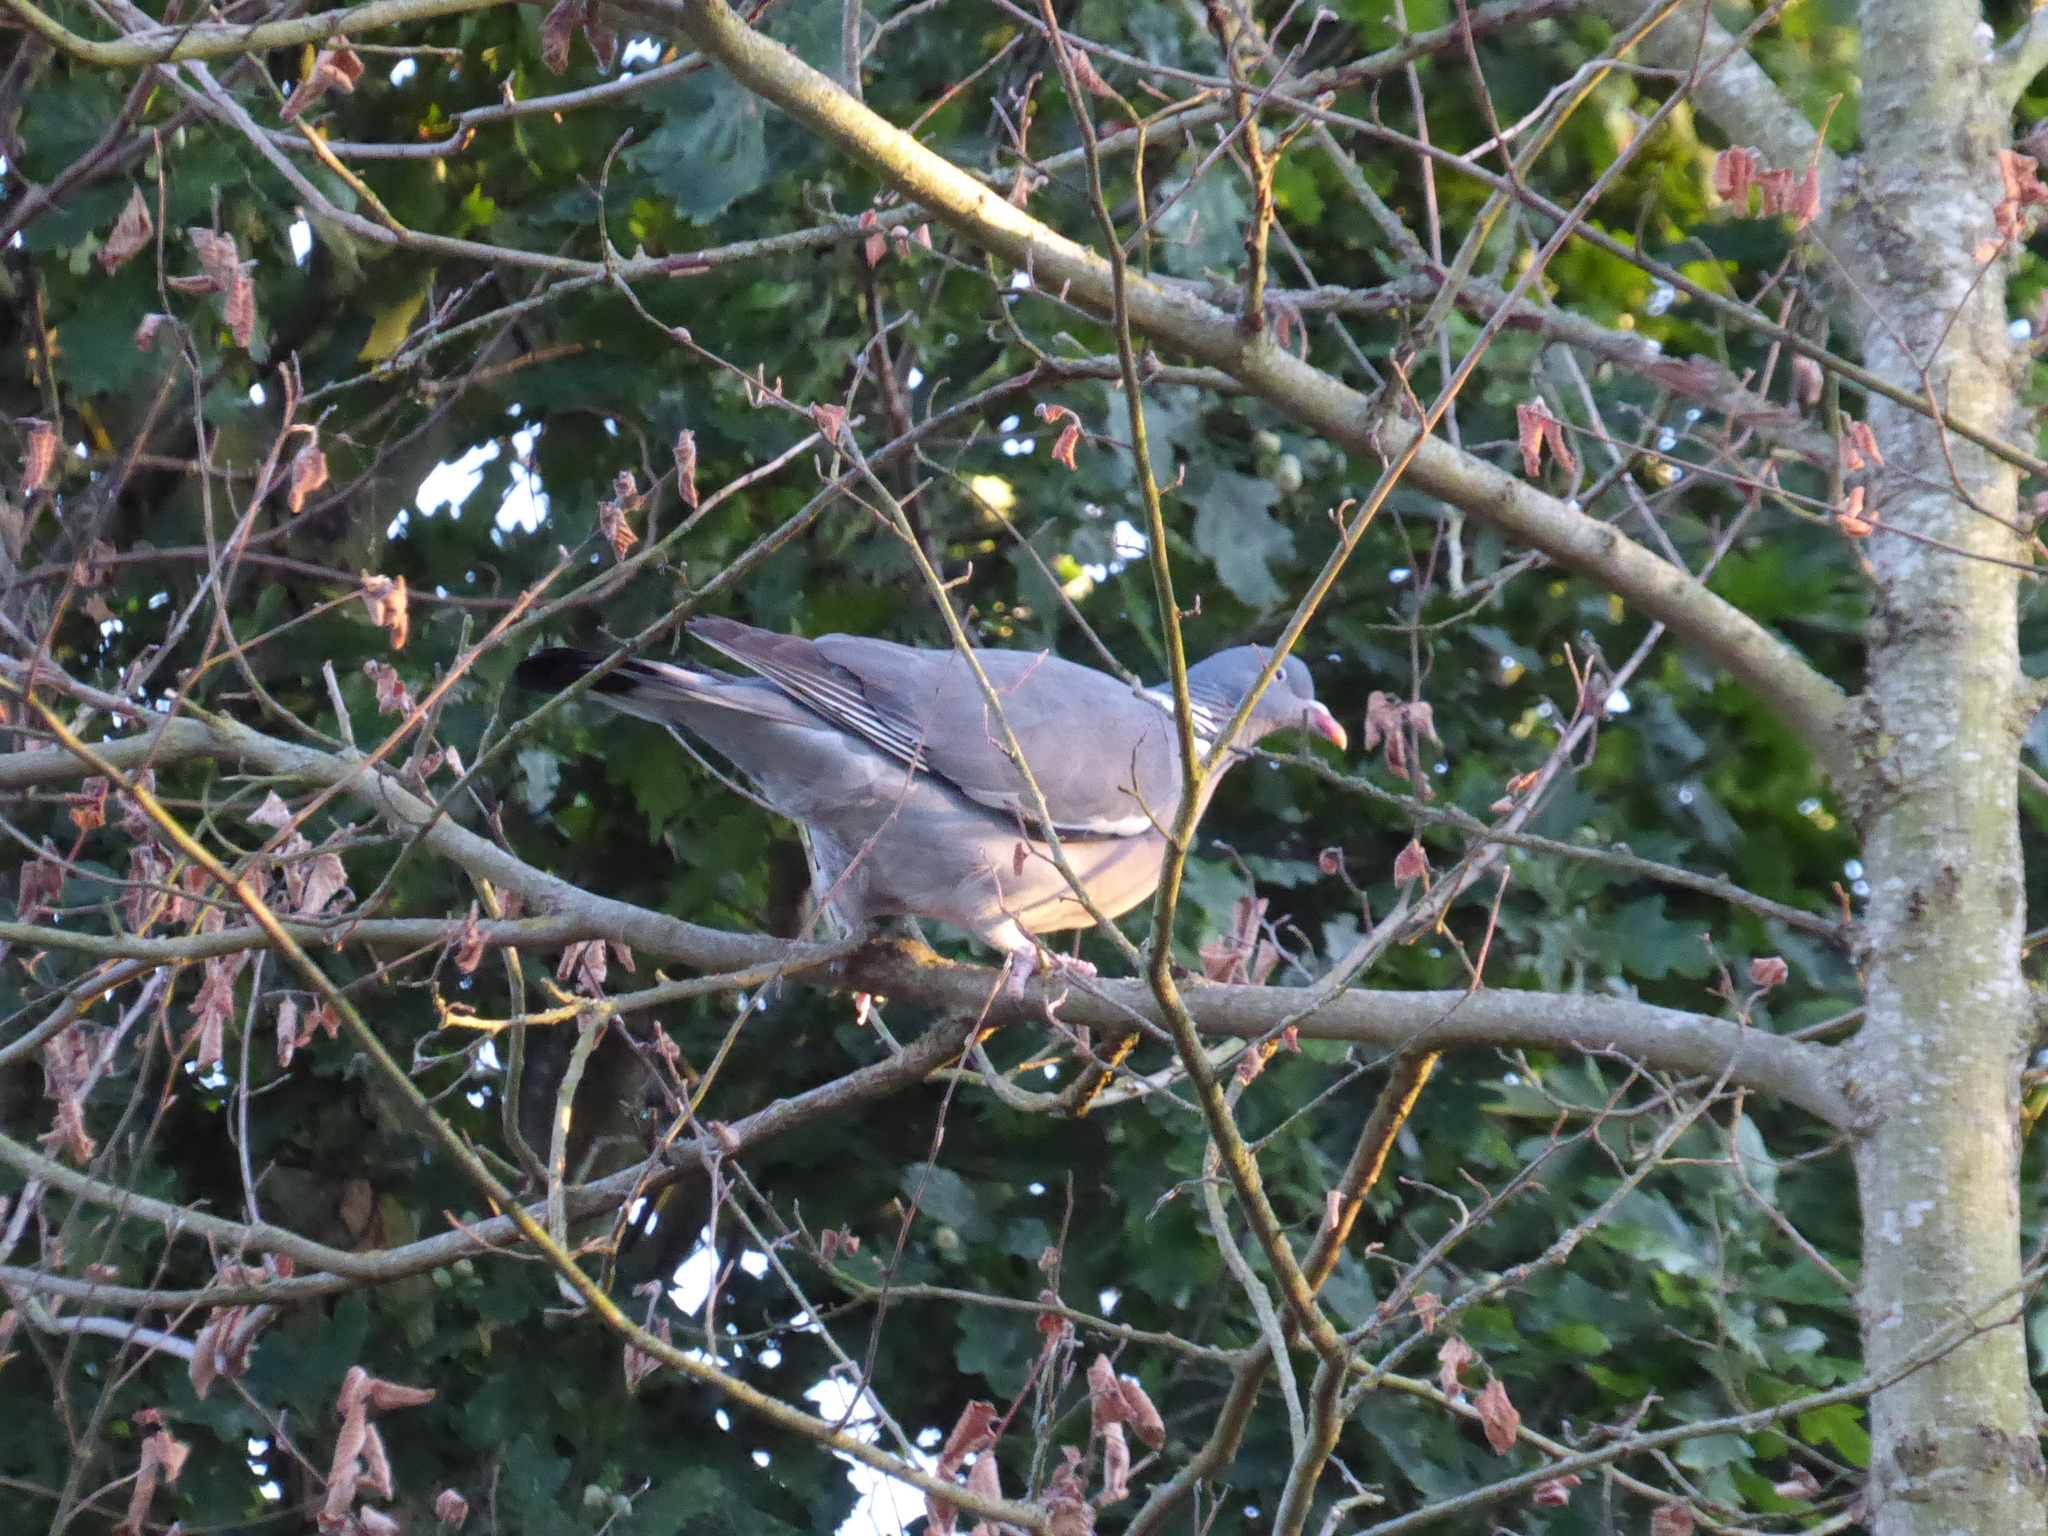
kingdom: Animalia
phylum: Chordata
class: Aves
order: Columbiformes
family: Columbidae
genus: Columba
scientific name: Columba palumbus
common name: Common wood pigeon
